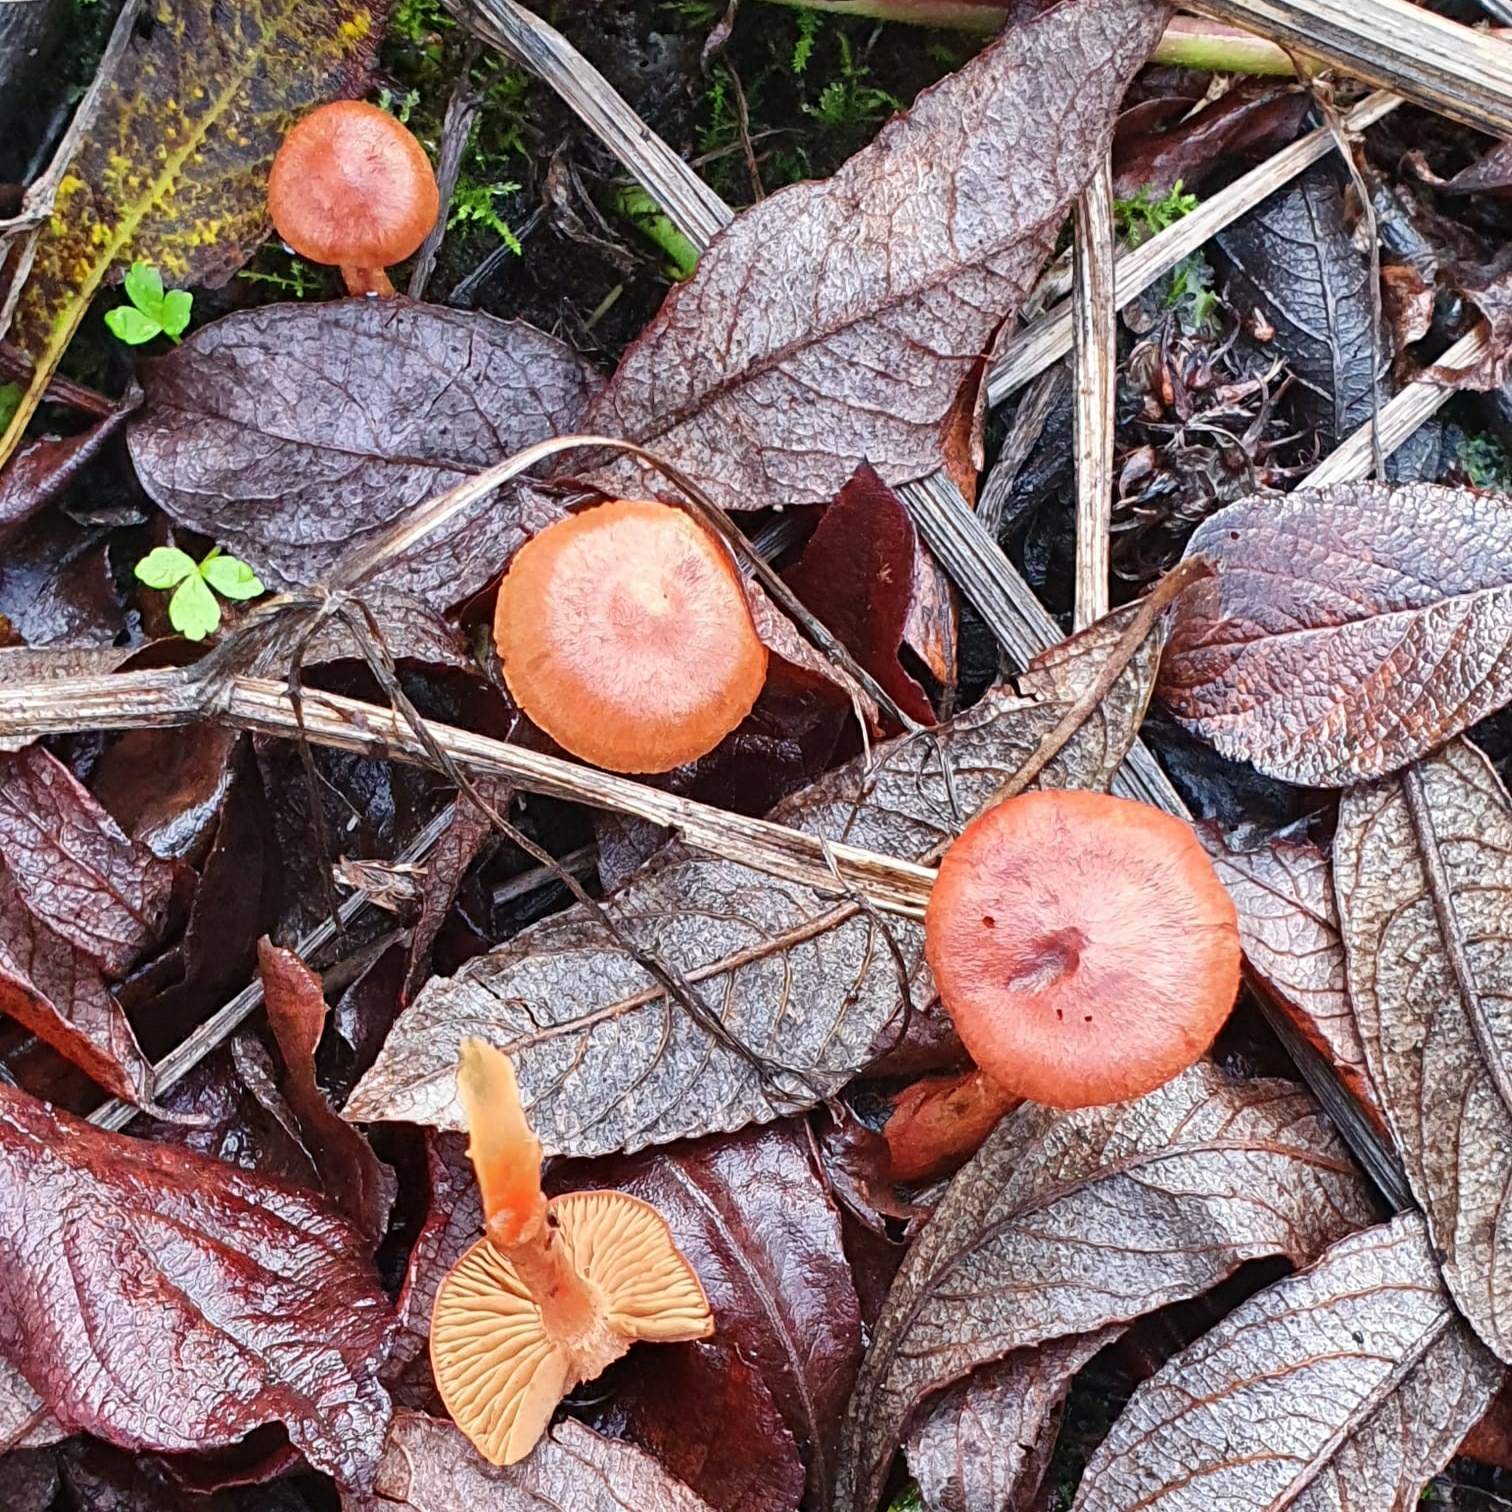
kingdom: Fungi
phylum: Basidiomycota
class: Agaricomycetes
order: Agaricales
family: Cortinariaceae
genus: Cortinarius
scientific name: Cortinarius uliginosus
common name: Marsh webcap
